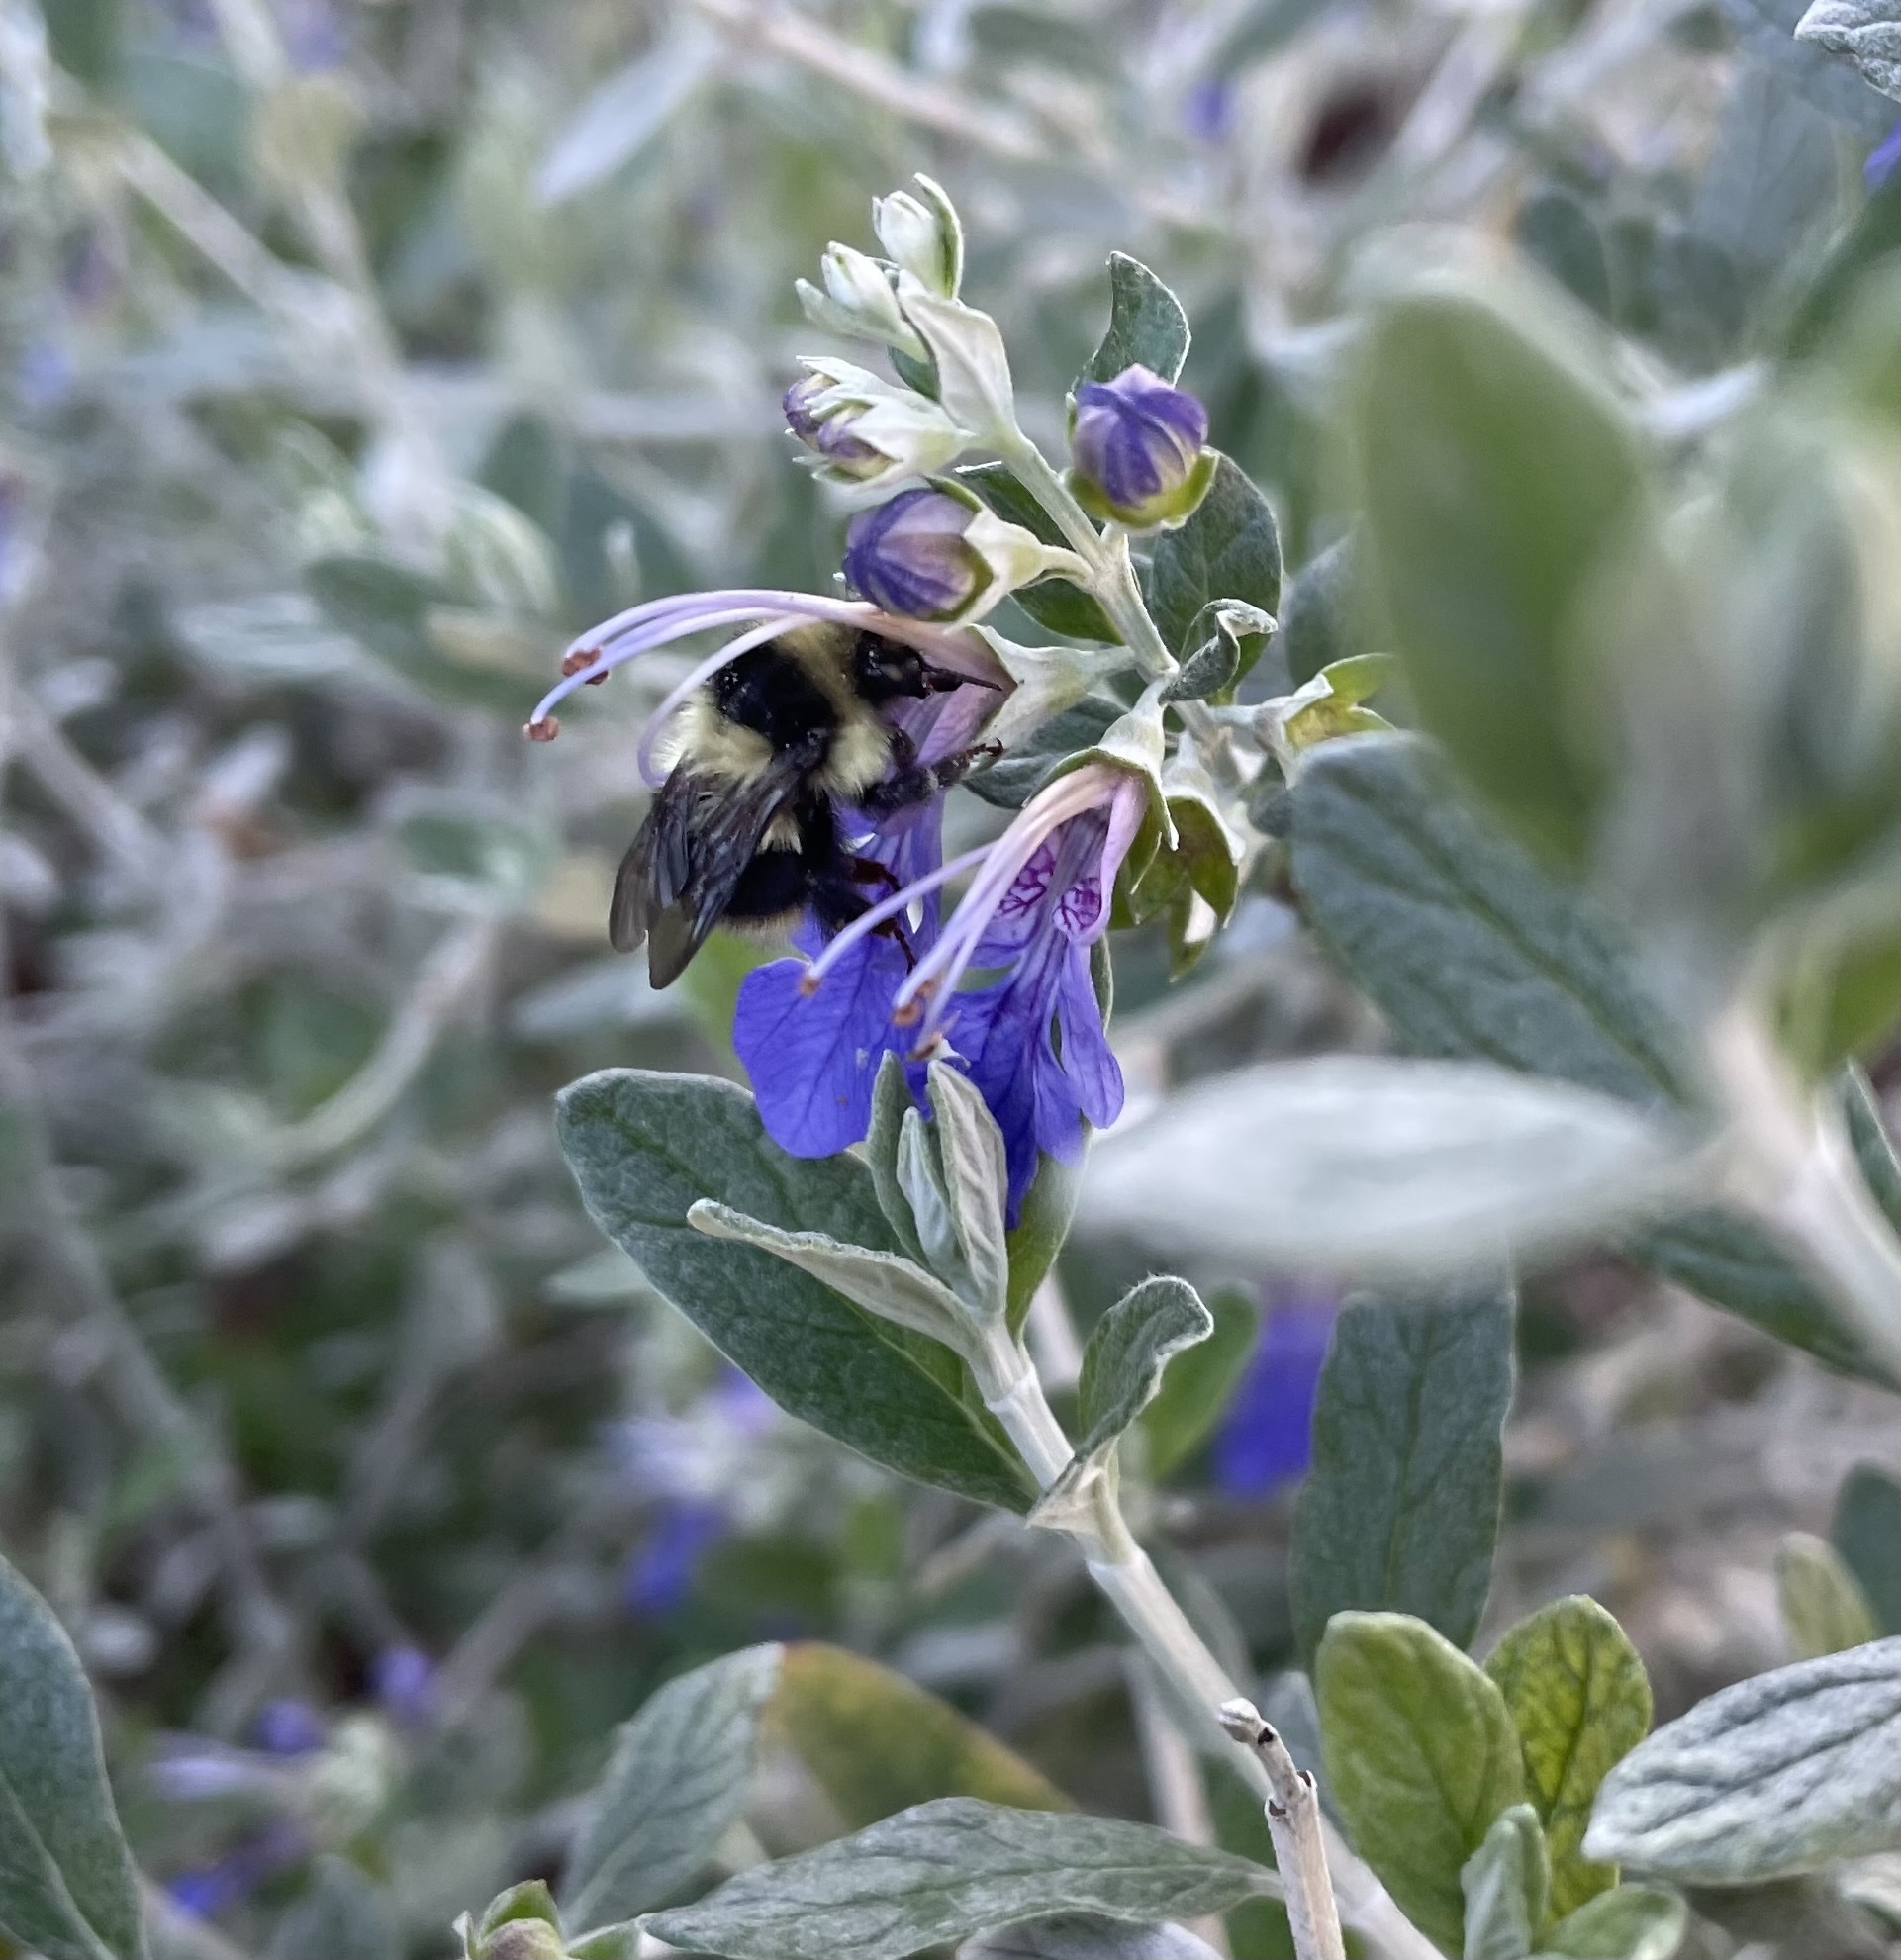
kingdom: Animalia
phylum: Arthropoda
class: Insecta
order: Hymenoptera
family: Apidae
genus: Bombus
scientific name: Bombus melanopygus
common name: Black tail bumble bee
